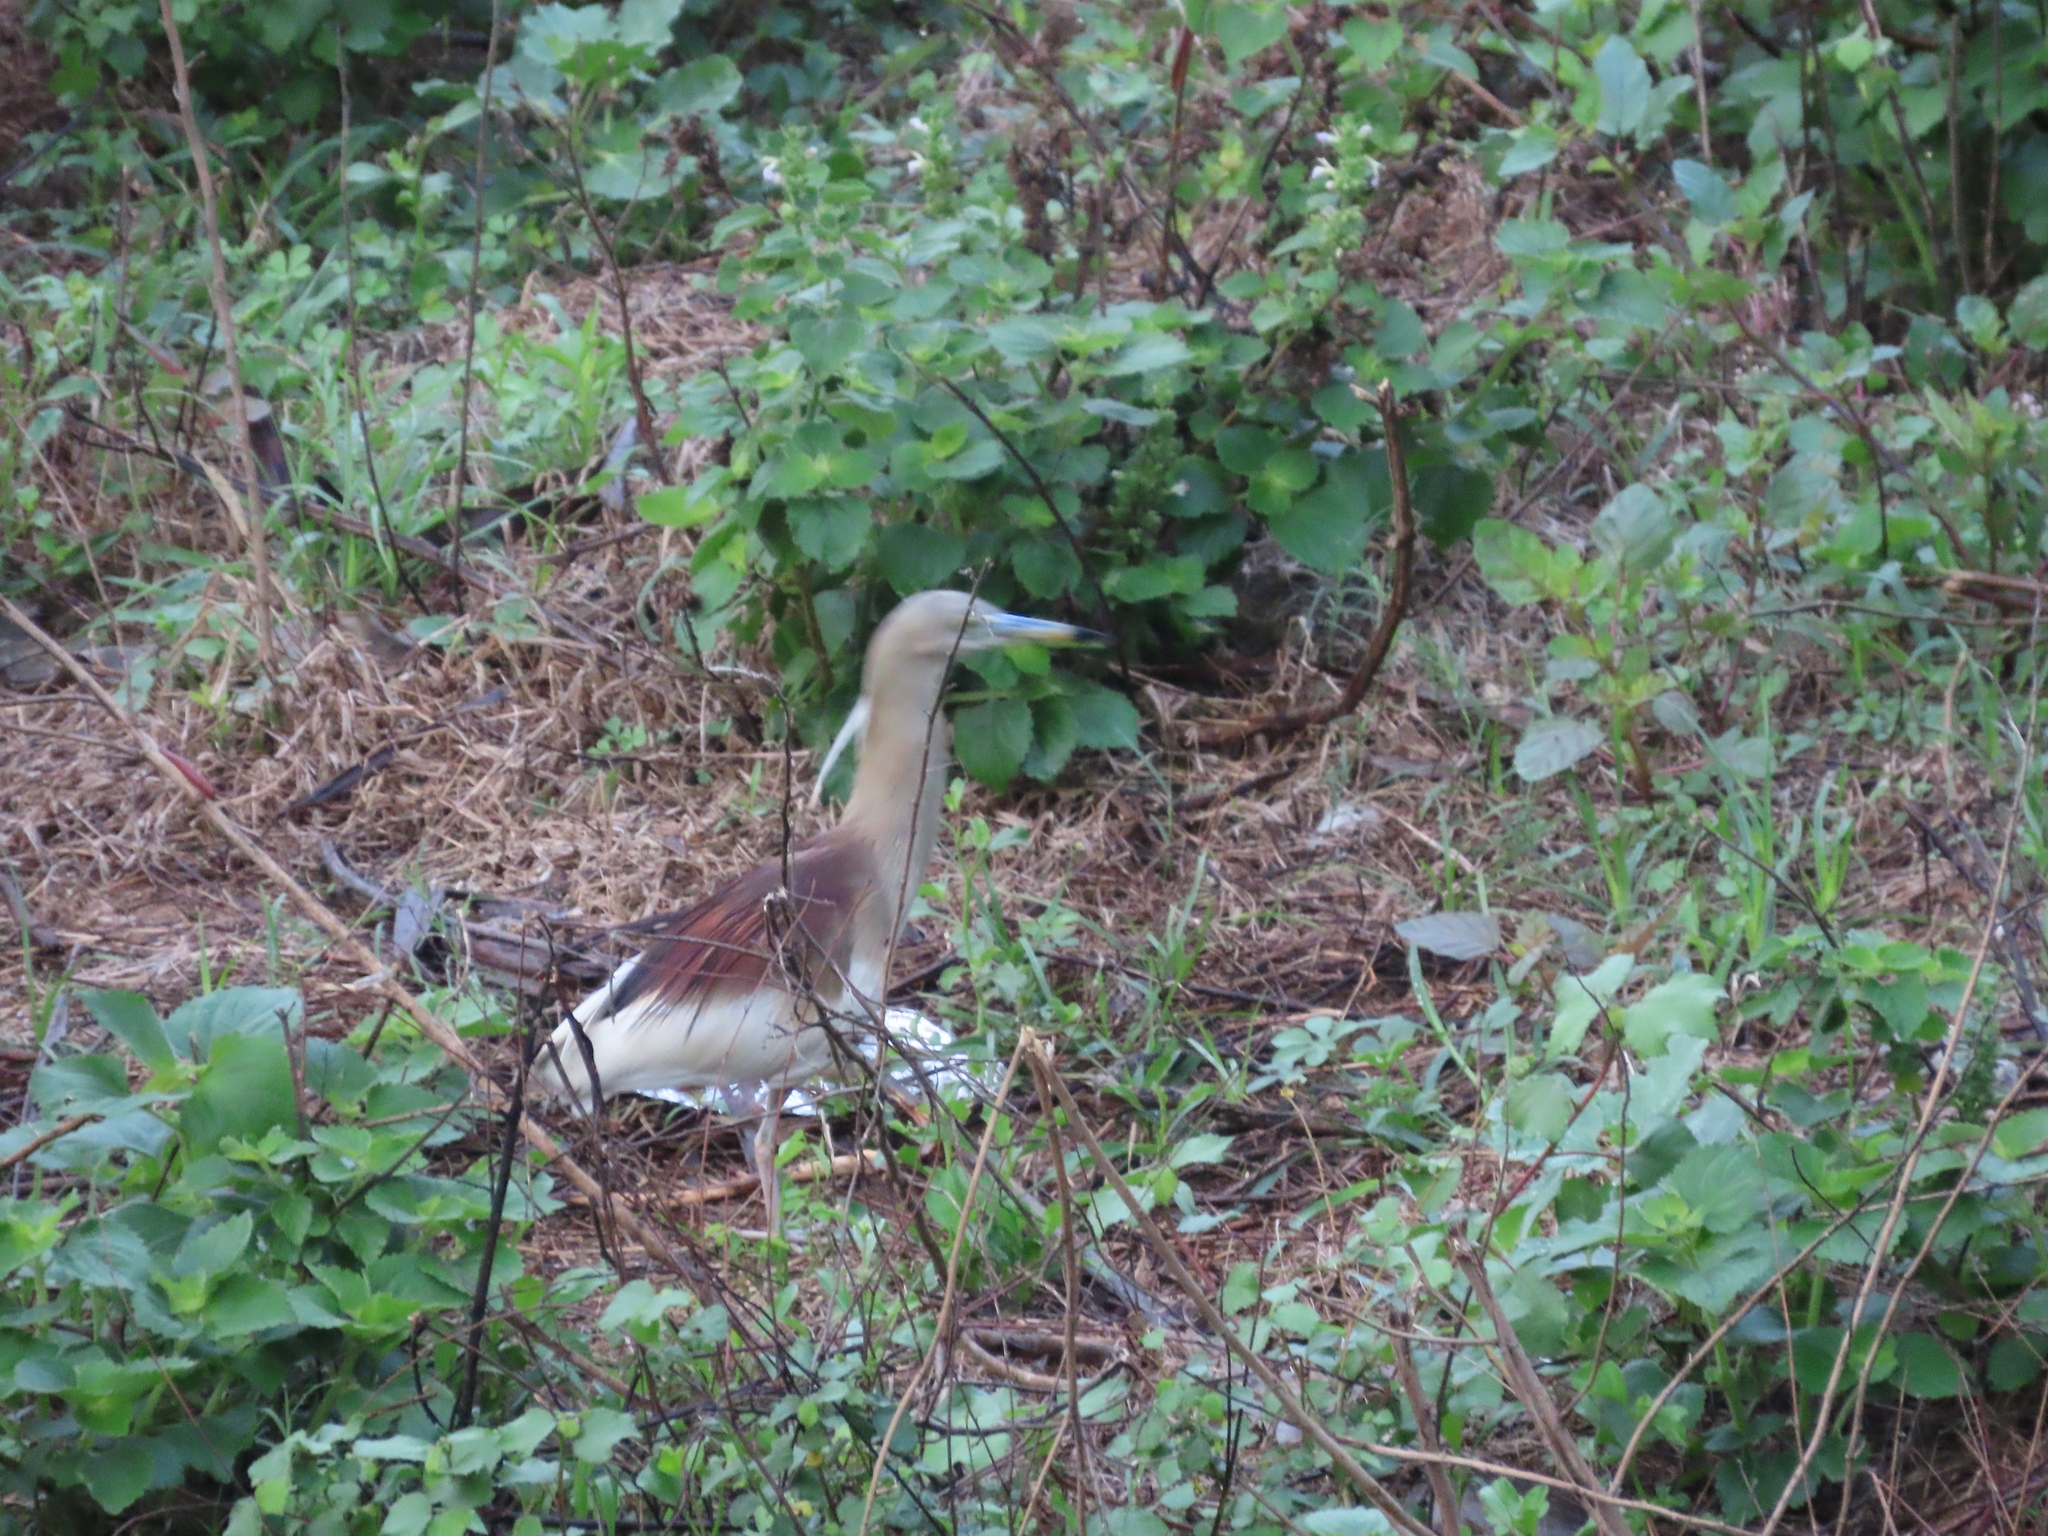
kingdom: Animalia
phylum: Chordata
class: Aves
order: Pelecaniformes
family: Ardeidae
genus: Ardeola
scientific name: Ardeola grayii
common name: Indian pond heron
